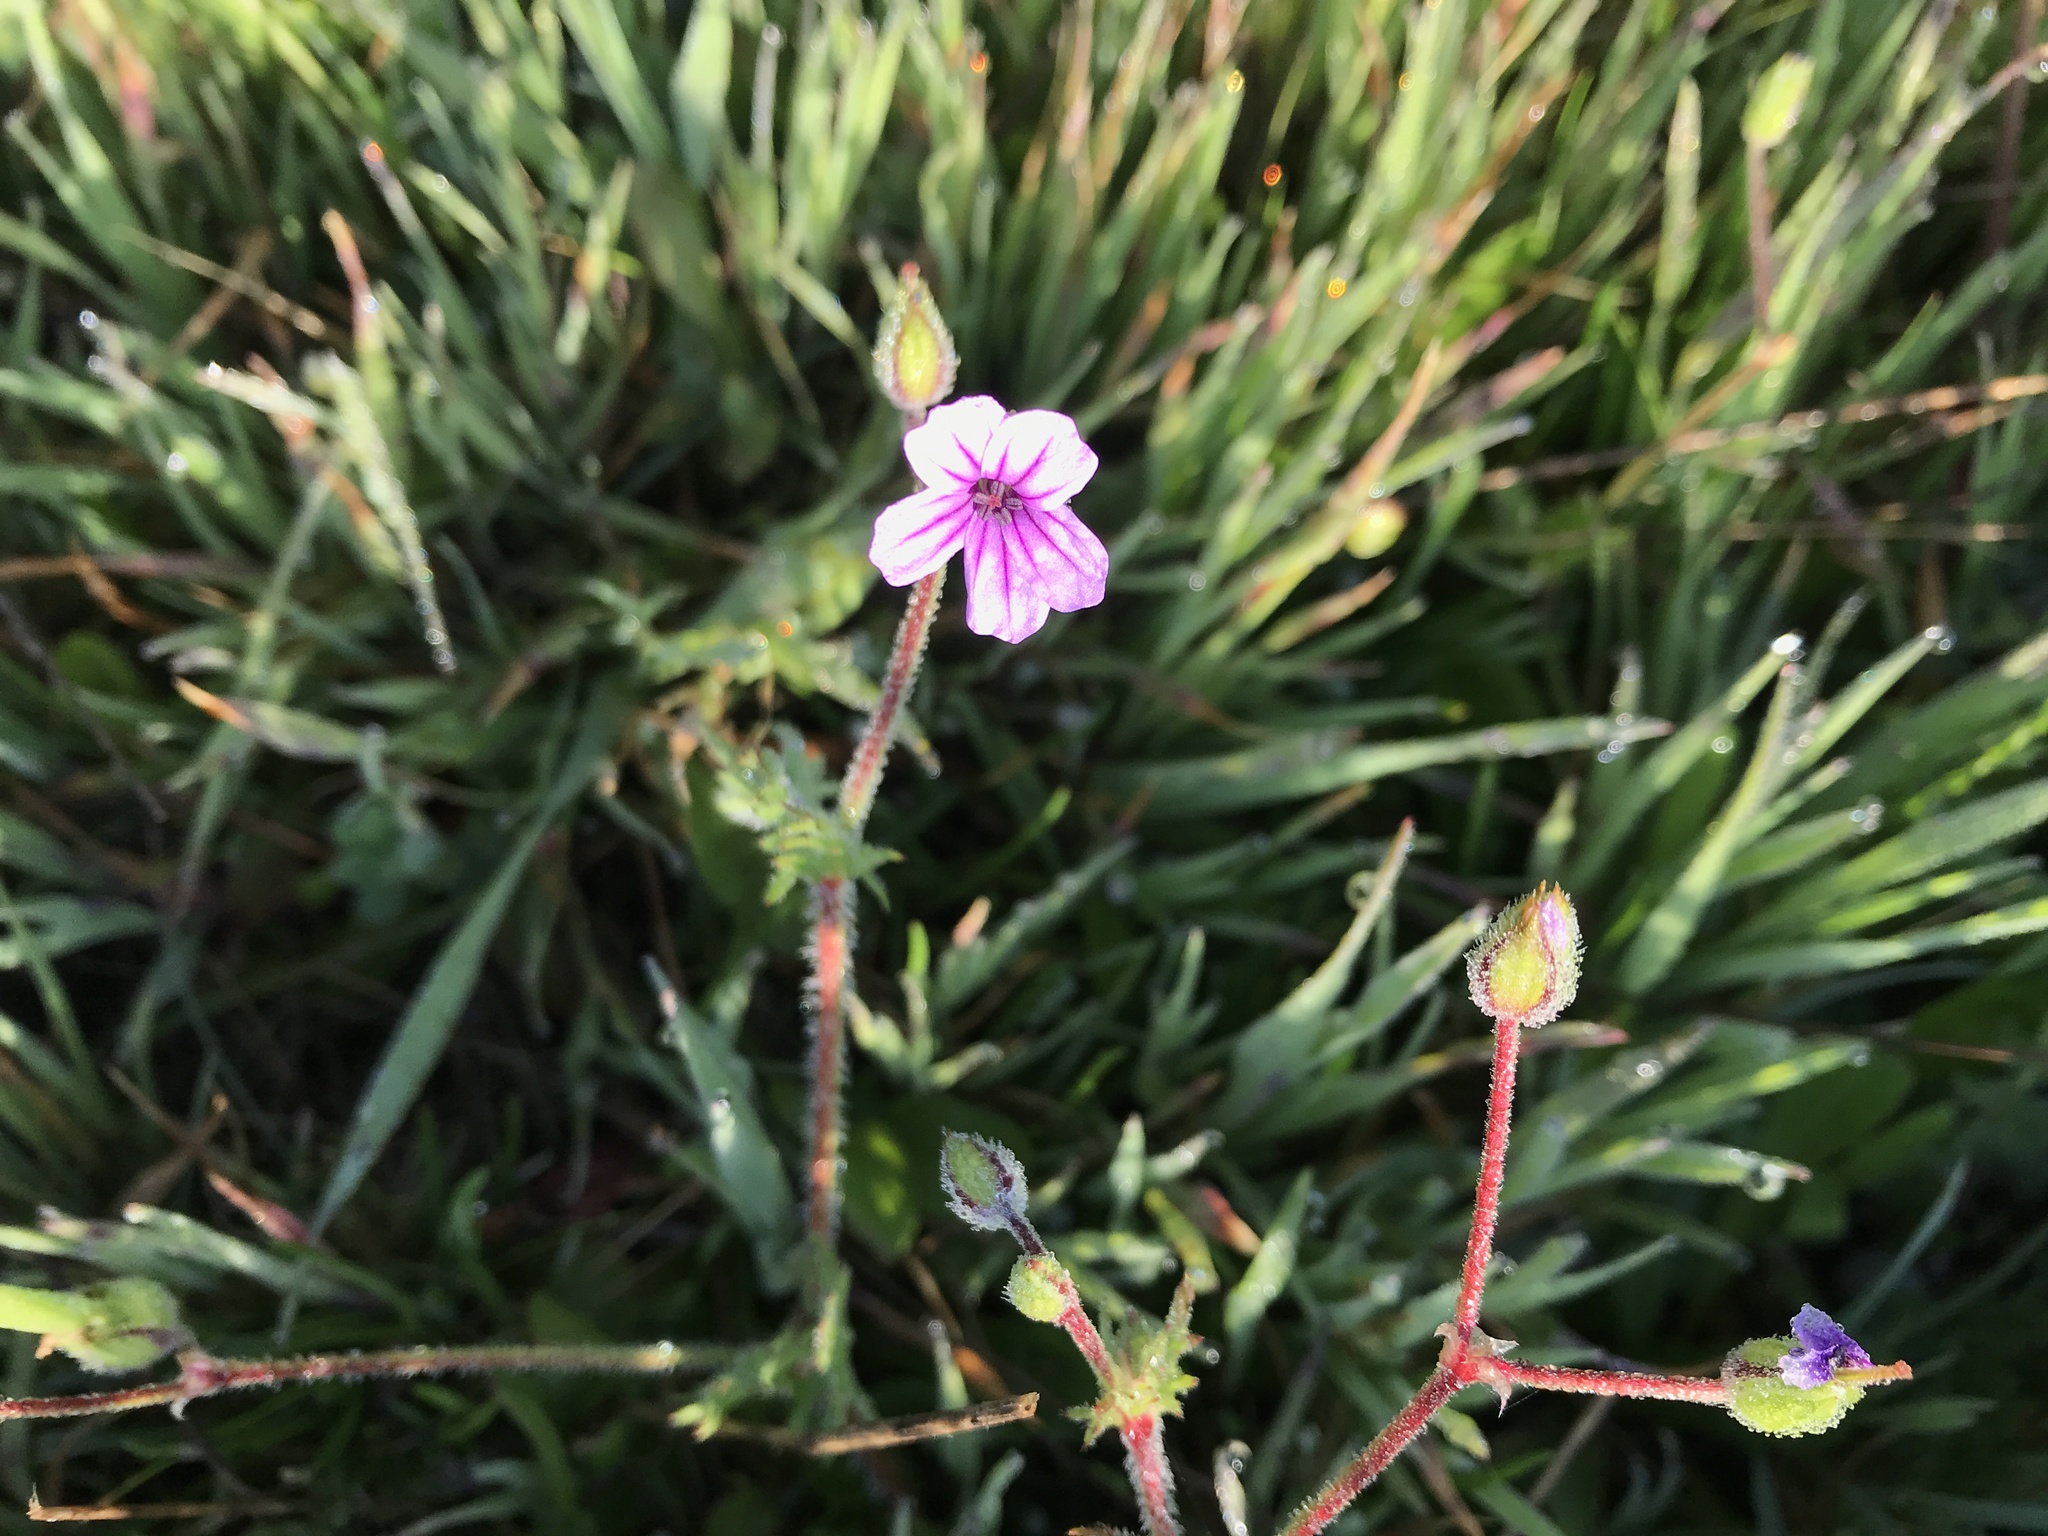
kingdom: Plantae
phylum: Tracheophyta
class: Magnoliopsida
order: Geraniales
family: Geraniaceae
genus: Erodium
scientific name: Erodium botrys
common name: Mediterranean stork's-bill
